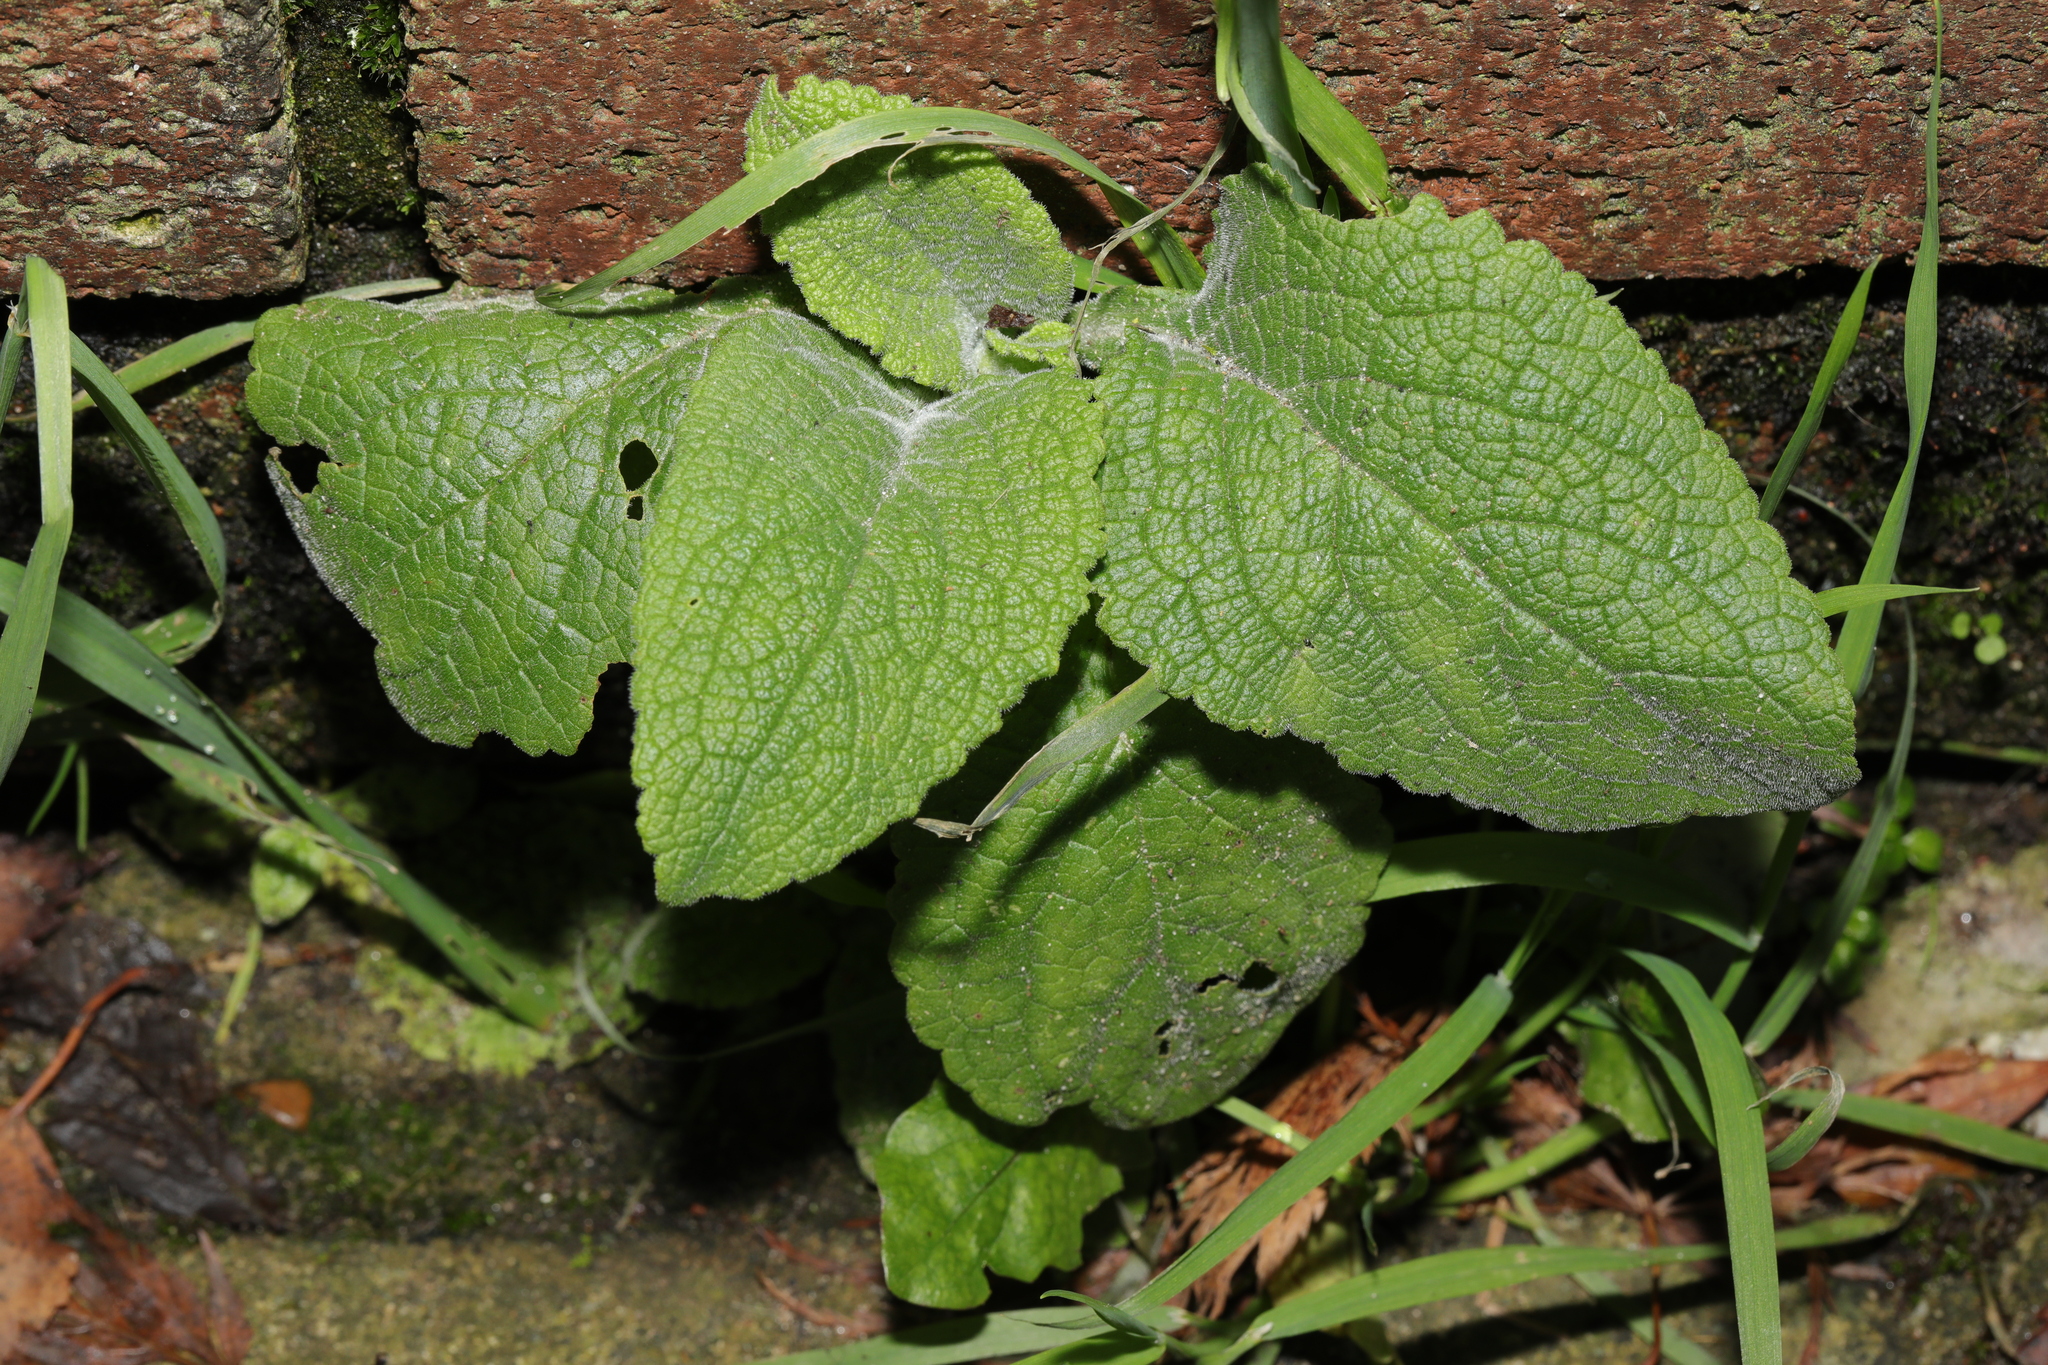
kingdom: Plantae
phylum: Tracheophyta
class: Magnoliopsida
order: Lamiales
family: Plantaginaceae
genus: Digitalis
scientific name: Digitalis purpurea
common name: Foxglove
